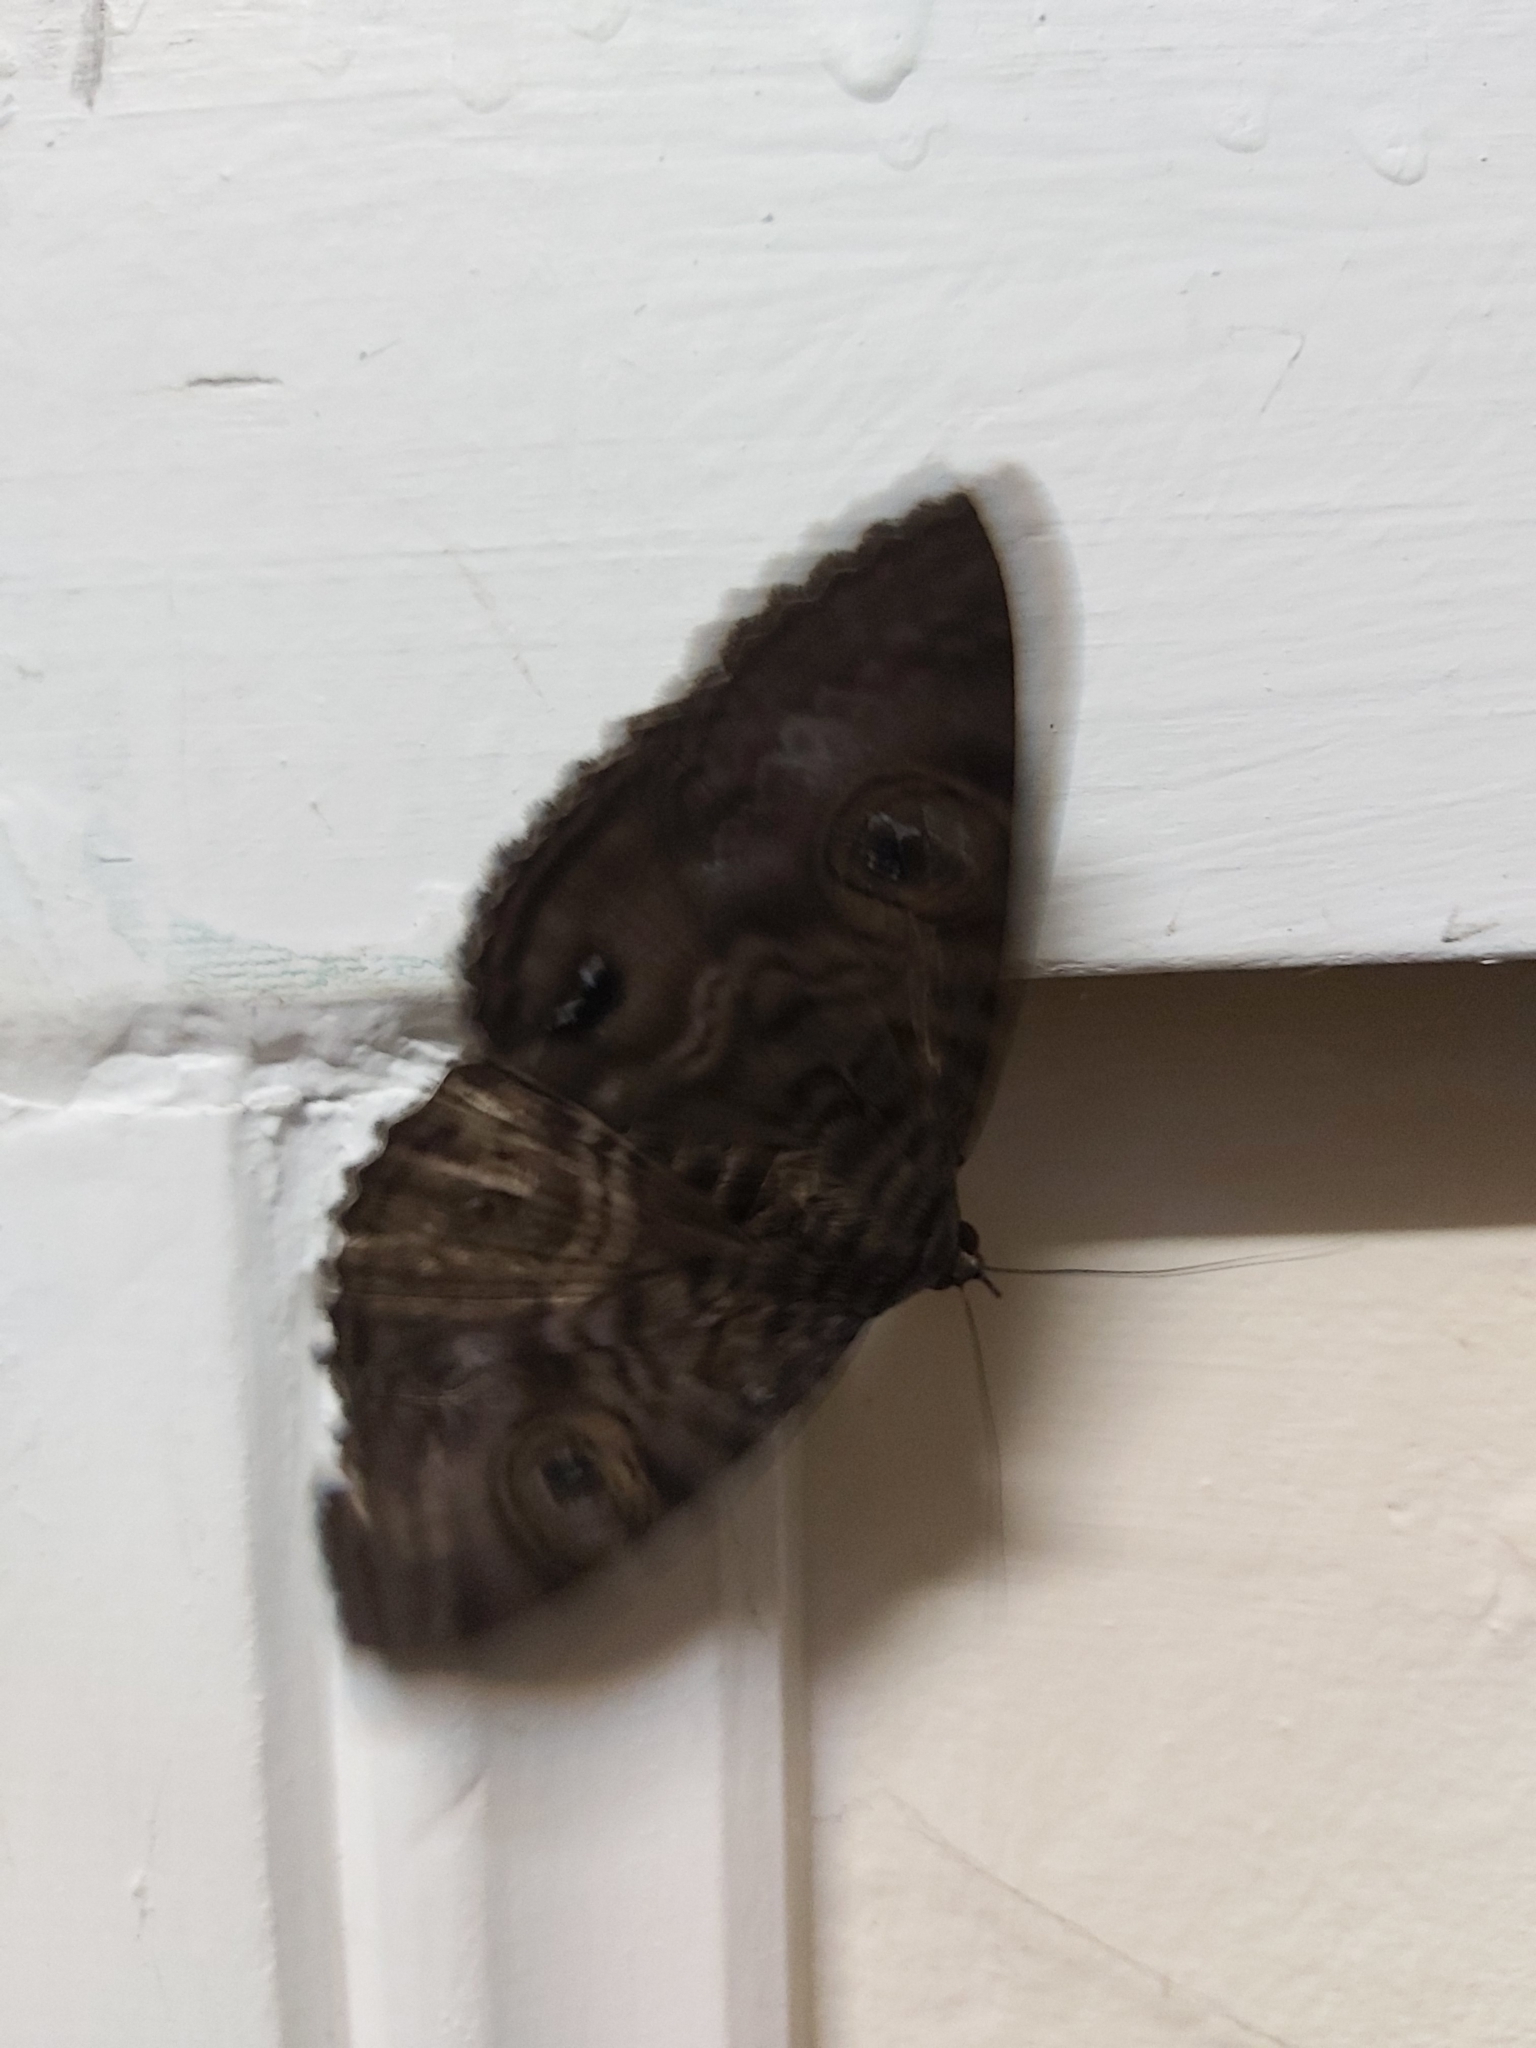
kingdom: Animalia
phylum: Arthropoda
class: Insecta
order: Lepidoptera
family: Erebidae
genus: Speiredonia
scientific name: Speiredonia spectans
